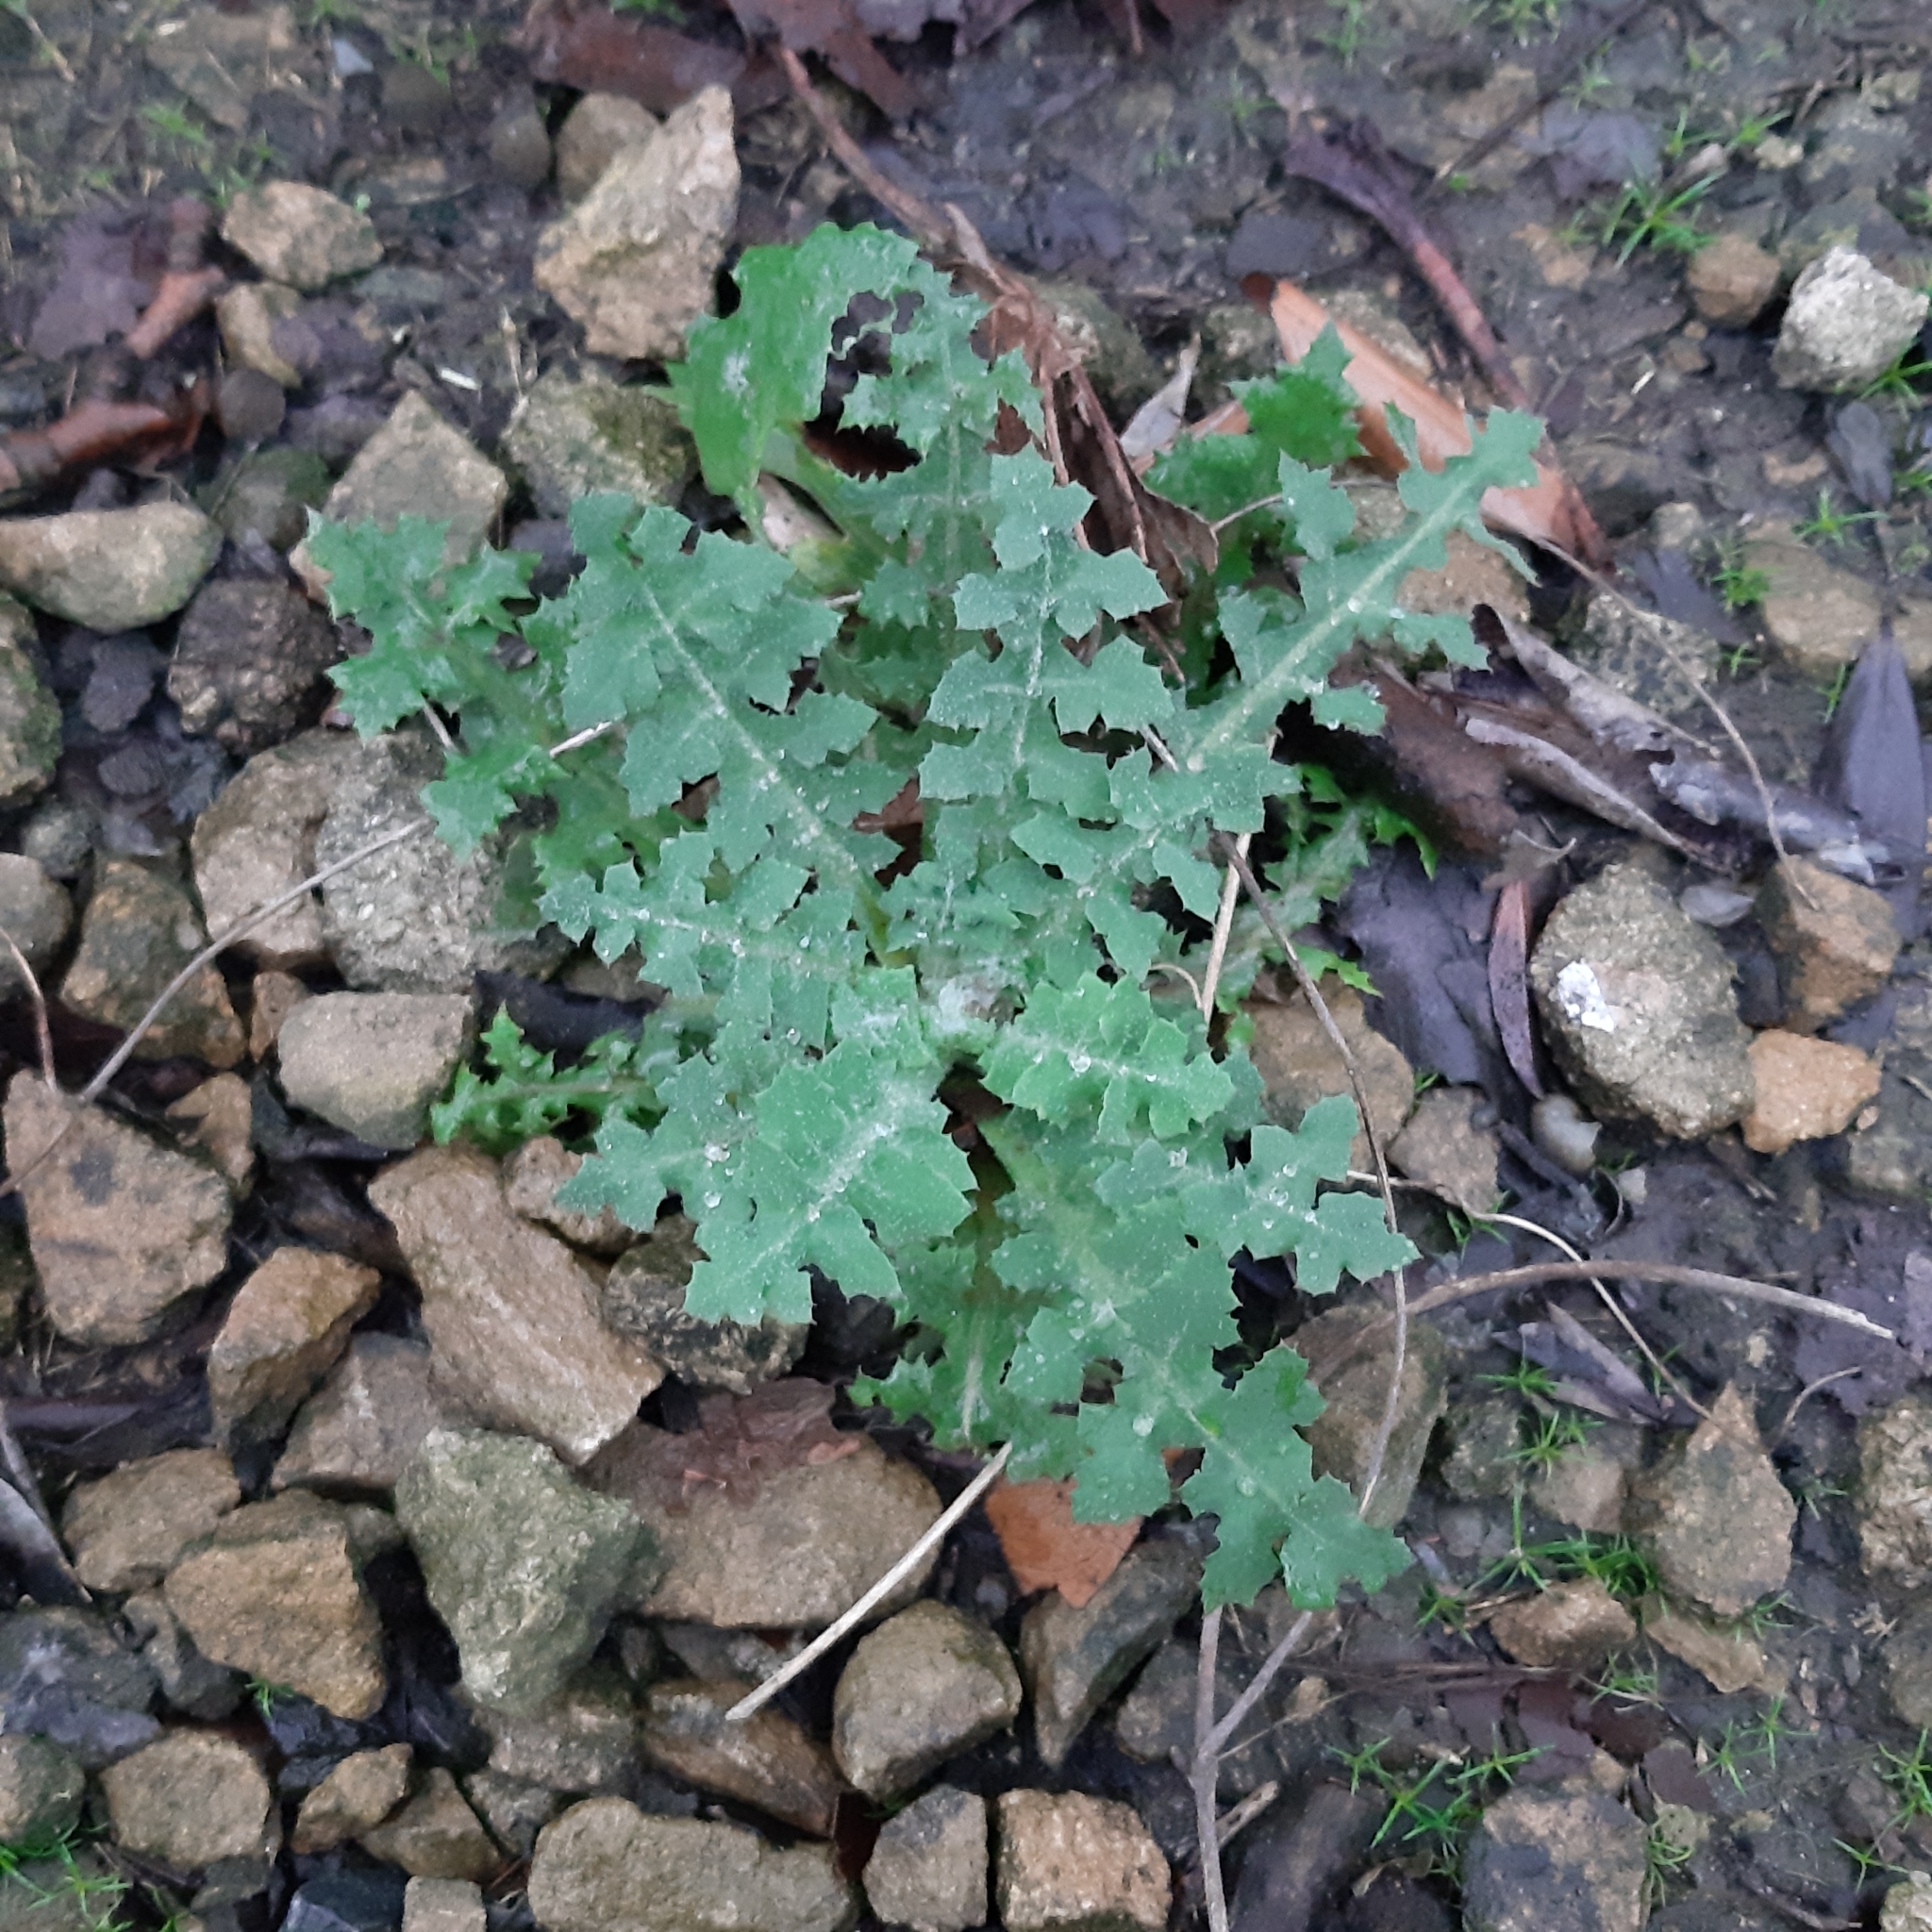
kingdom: Plantae
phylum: Tracheophyta
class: Magnoliopsida
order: Asterales
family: Asteraceae
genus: Sonchus
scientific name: Sonchus oleraceus
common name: Common sowthistle
